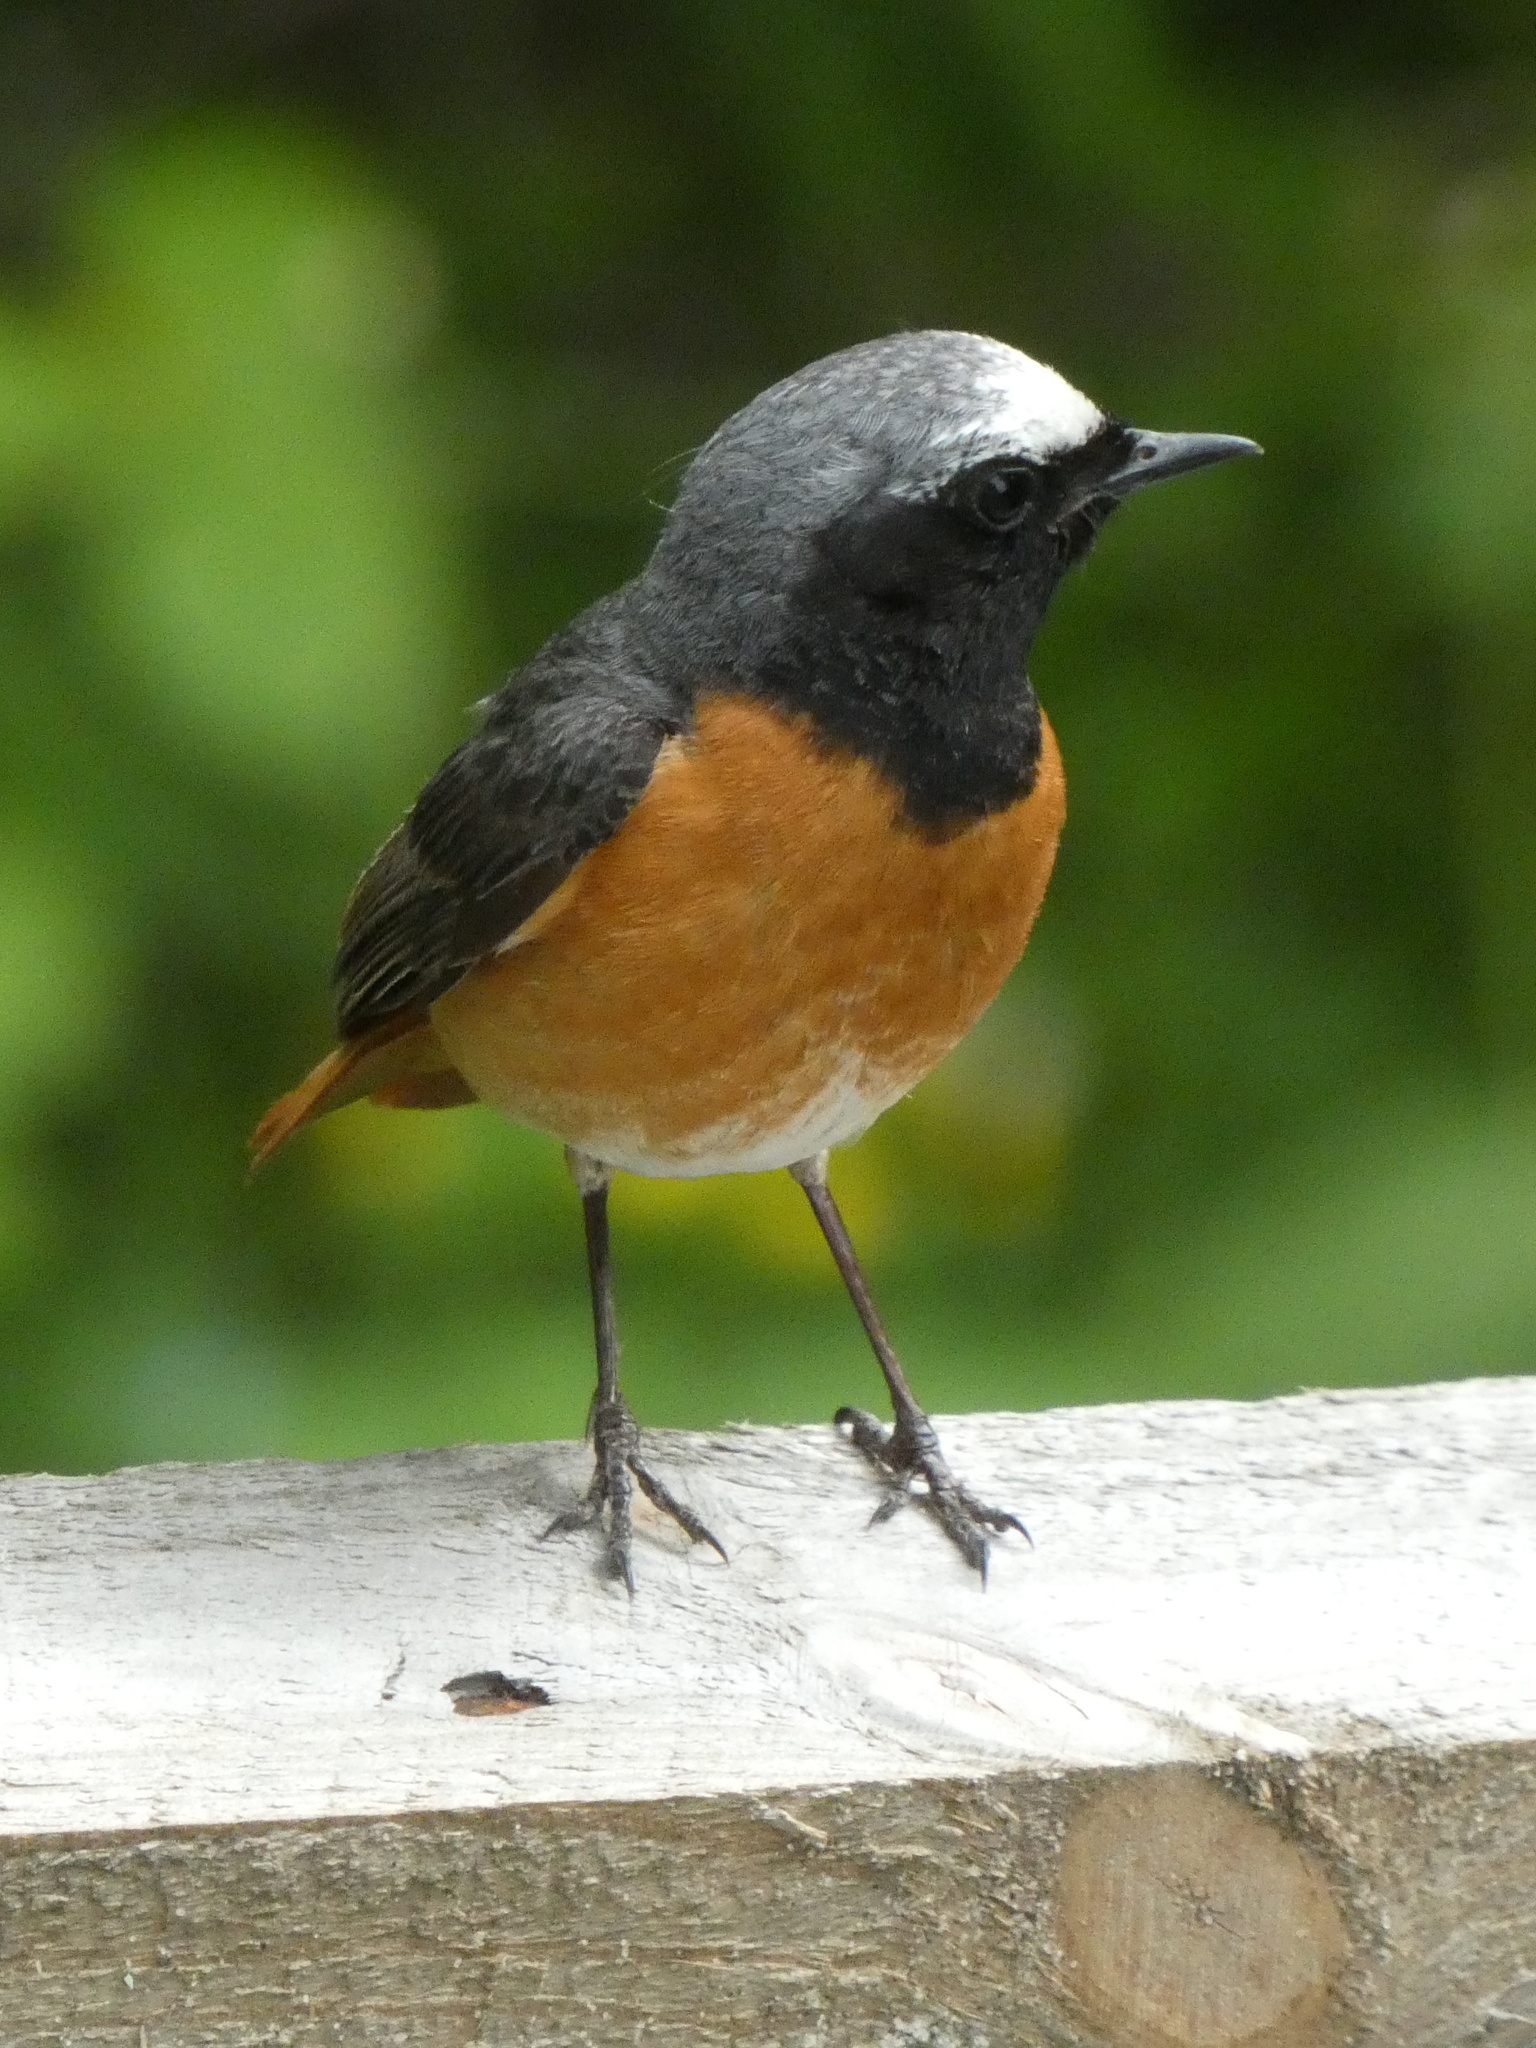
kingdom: Animalia
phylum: Chordata
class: Aves
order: Passeriformes
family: Muscicapidae
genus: Phoenicurus
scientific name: Phoenicurus phoenicurus
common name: Common redstart
